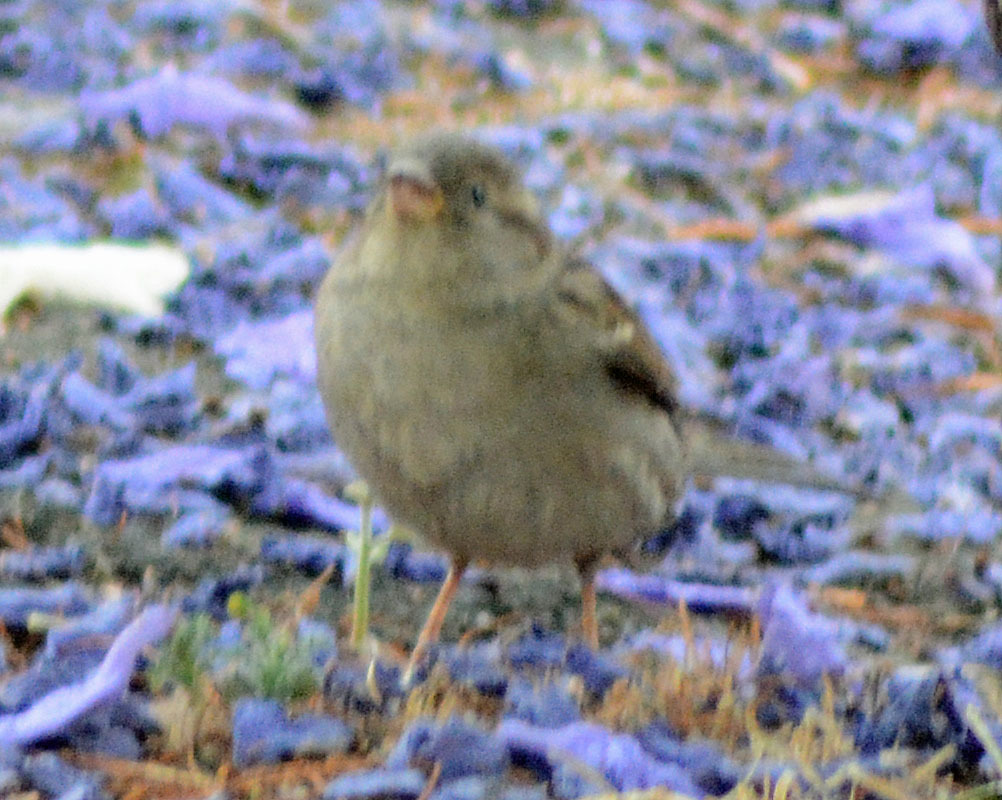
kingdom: Animalia
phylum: Chordata
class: Aves
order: Passeriformes
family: Passeridae
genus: Passer
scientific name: Passer domesticus
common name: House sparrow
